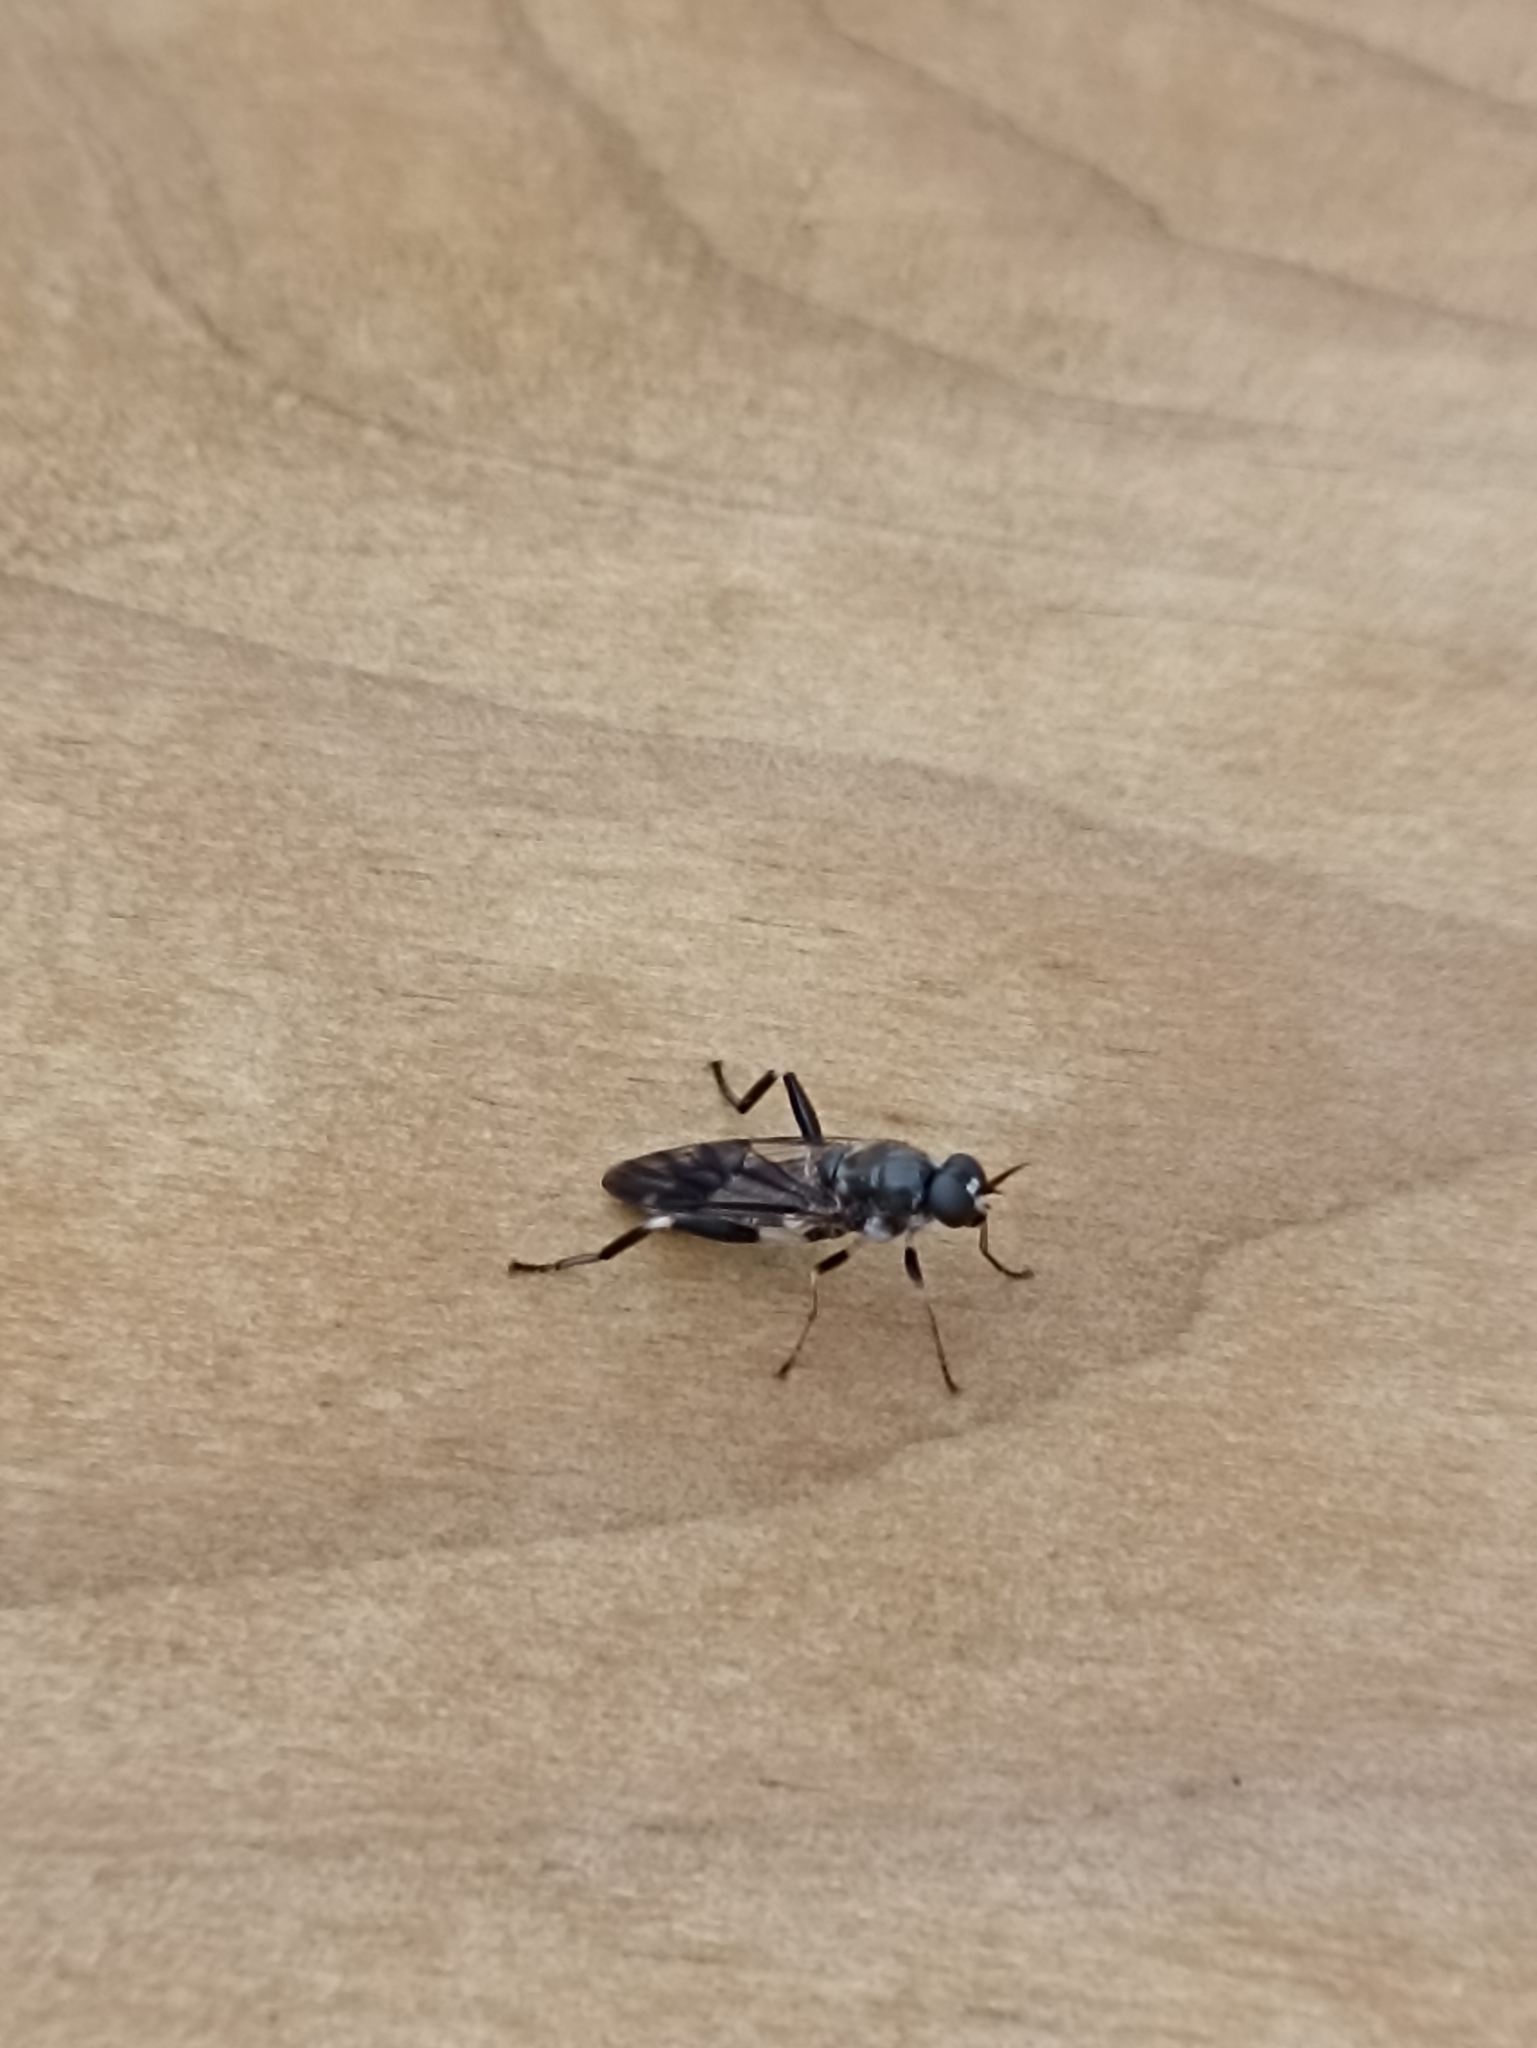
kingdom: Animalia
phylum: Arthropoda
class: Insecta
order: Diptera
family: Stratiomyidae
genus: Exaireta
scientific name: Exaireta spinigera
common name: Blue soldier fly
